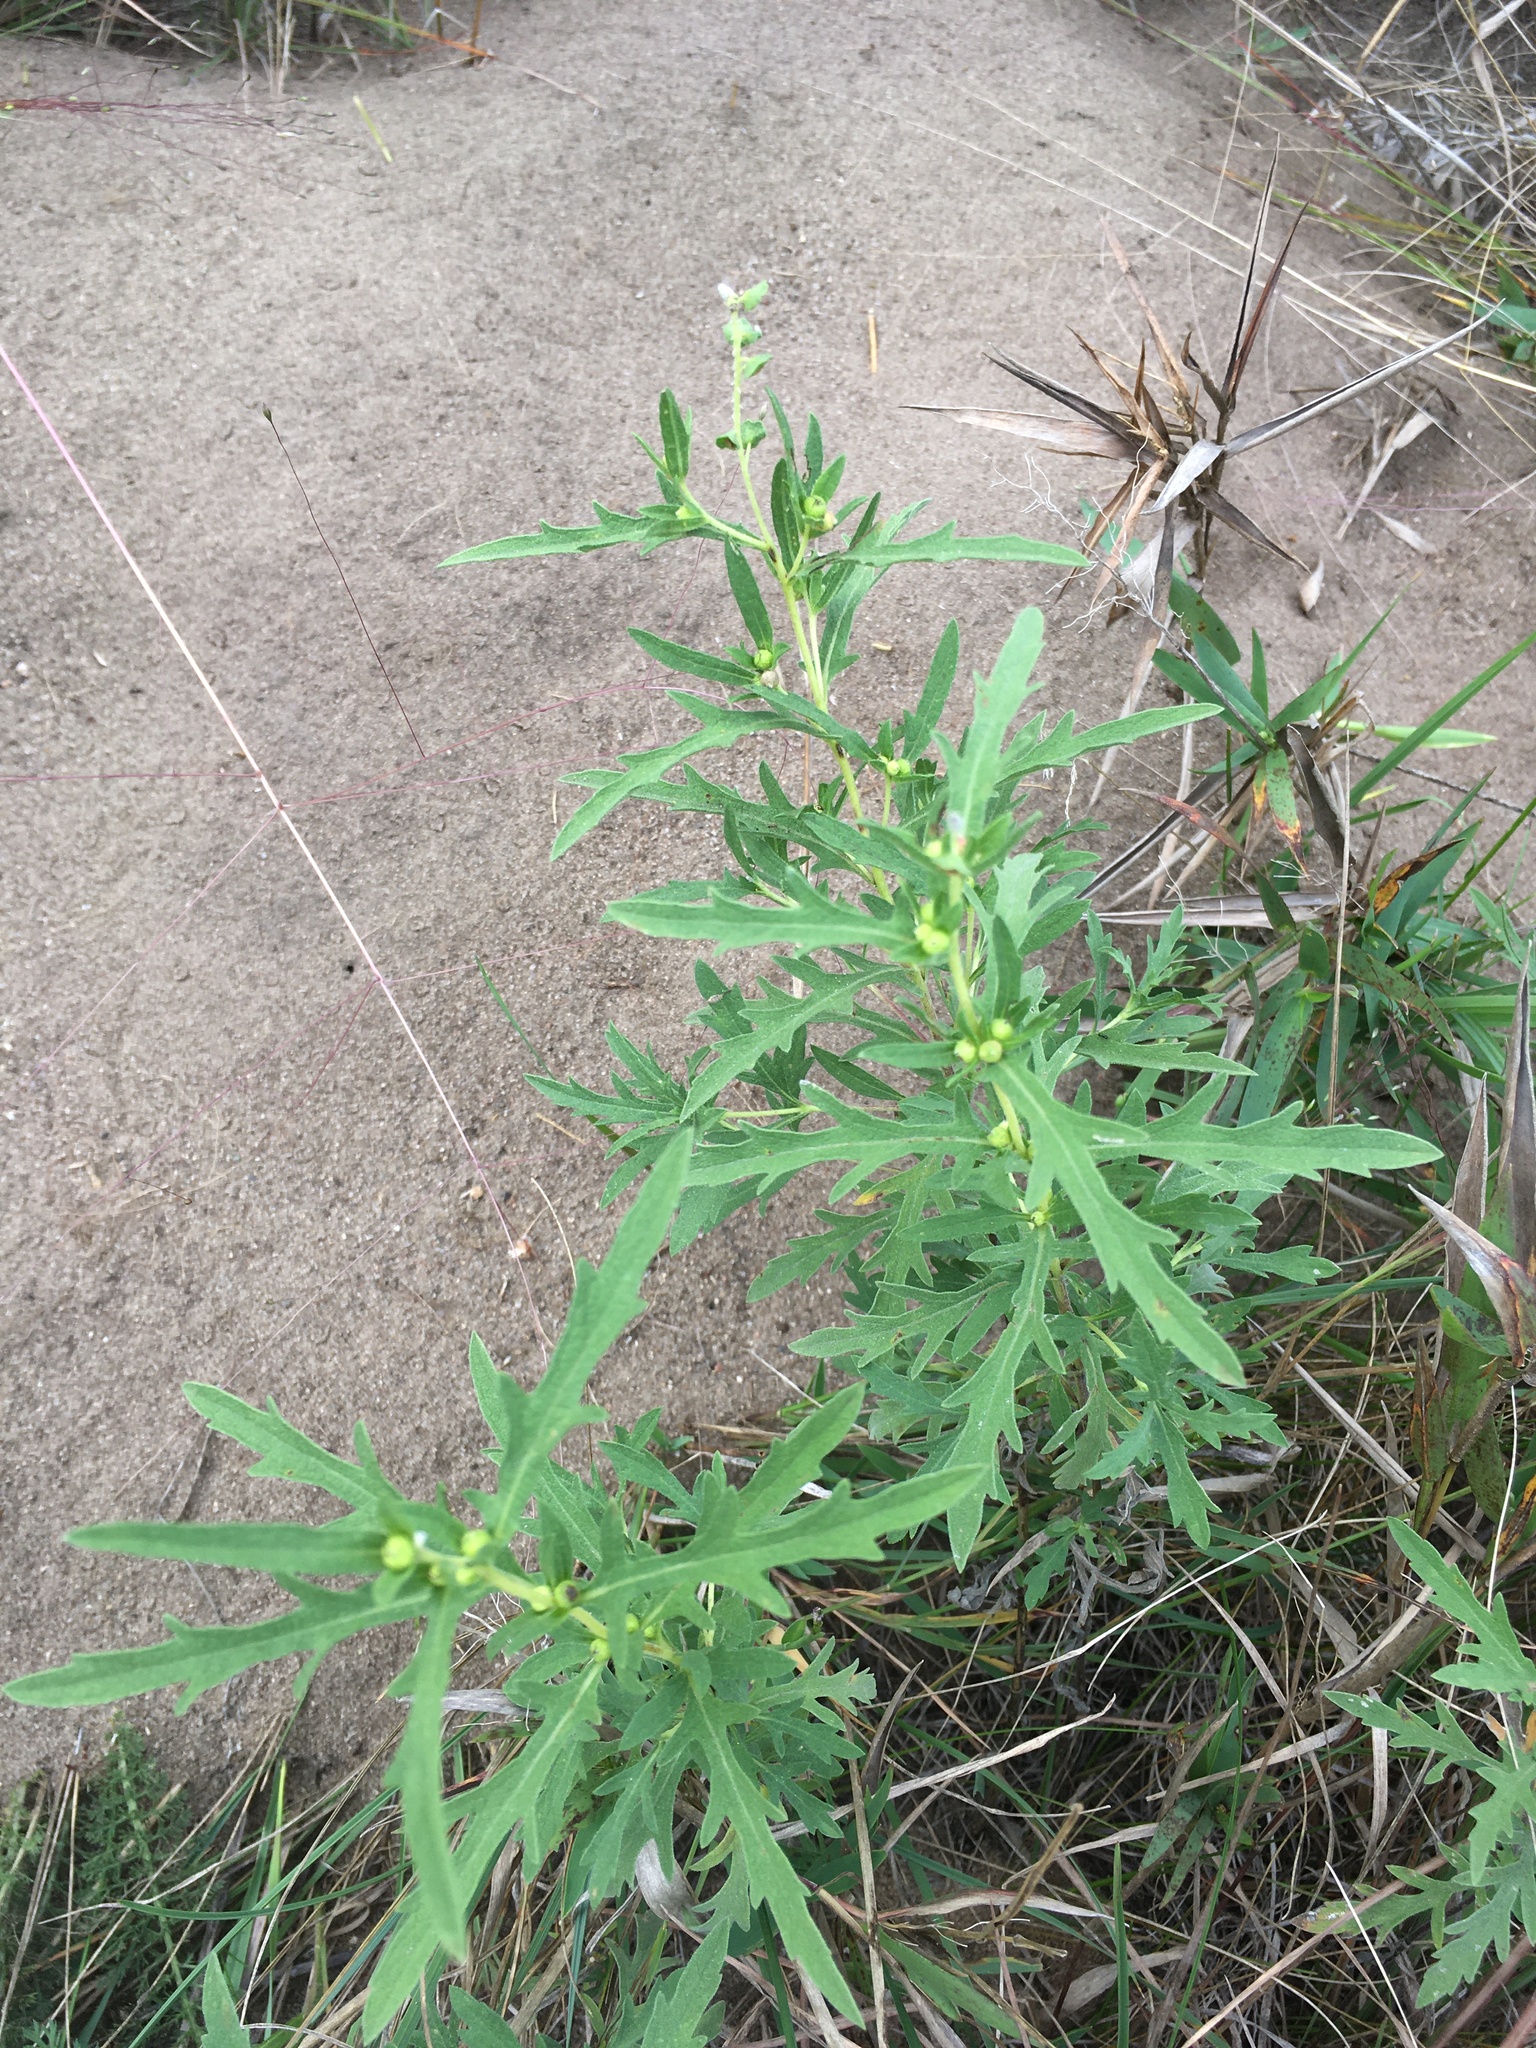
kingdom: Plantae
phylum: Tracheophyta
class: Magnoliopsida
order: Asterales
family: Asteraceae
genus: Ambrosia
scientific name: Ambrosia psilostachya
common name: Perennial ragweed
